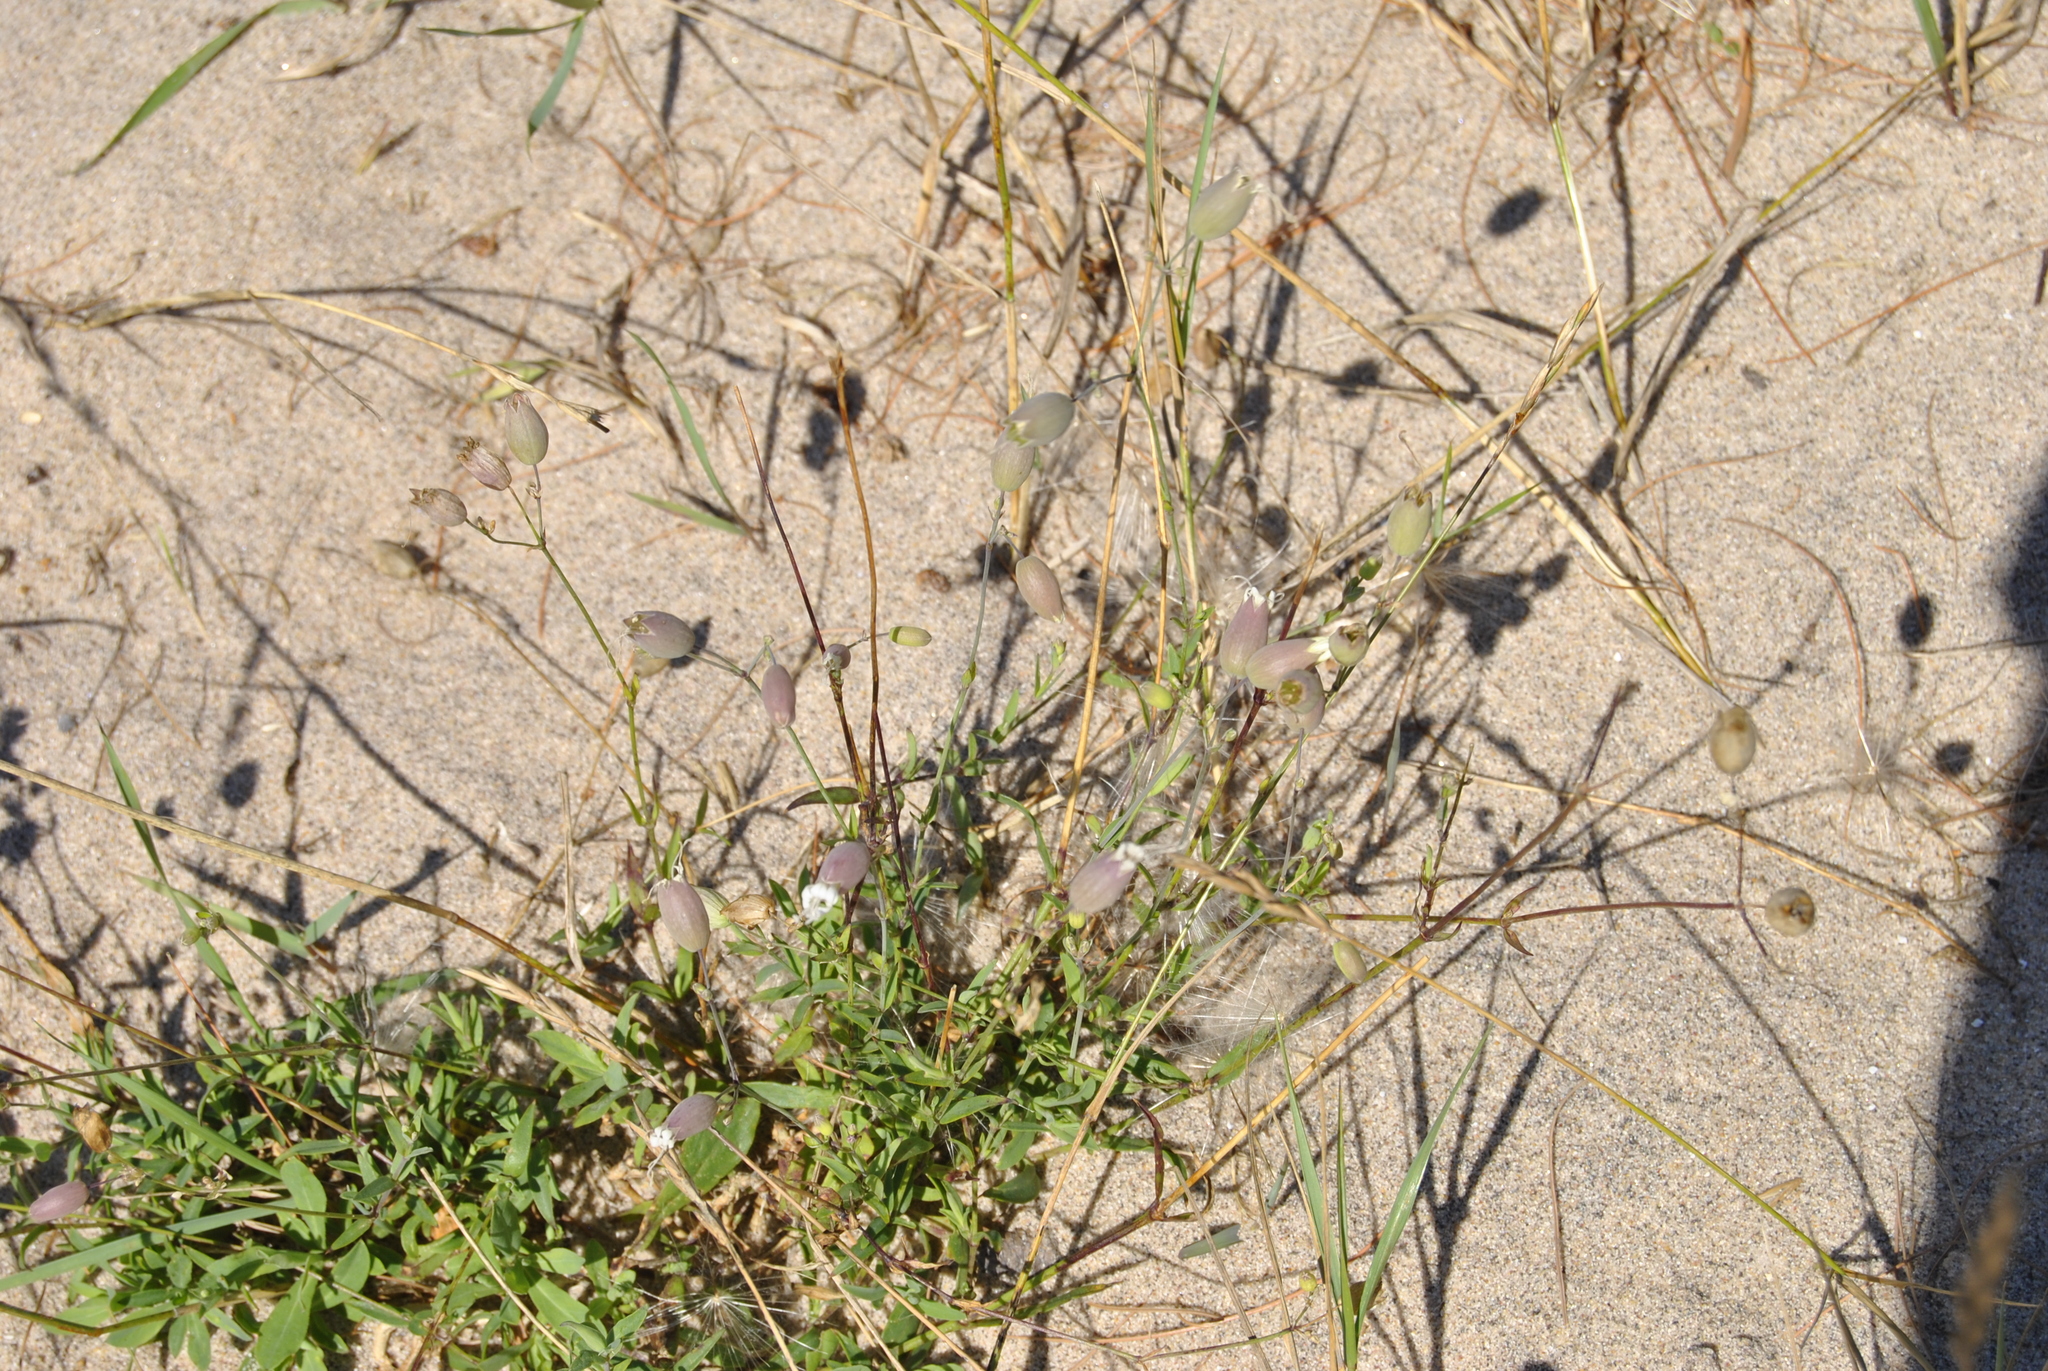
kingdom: Plantae
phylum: Tracheophyta
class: Magnoliopsida
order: Caryophyllales
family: Caryophyllaceae
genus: Silene
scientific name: Silene vulgaris
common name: Bladder campion
